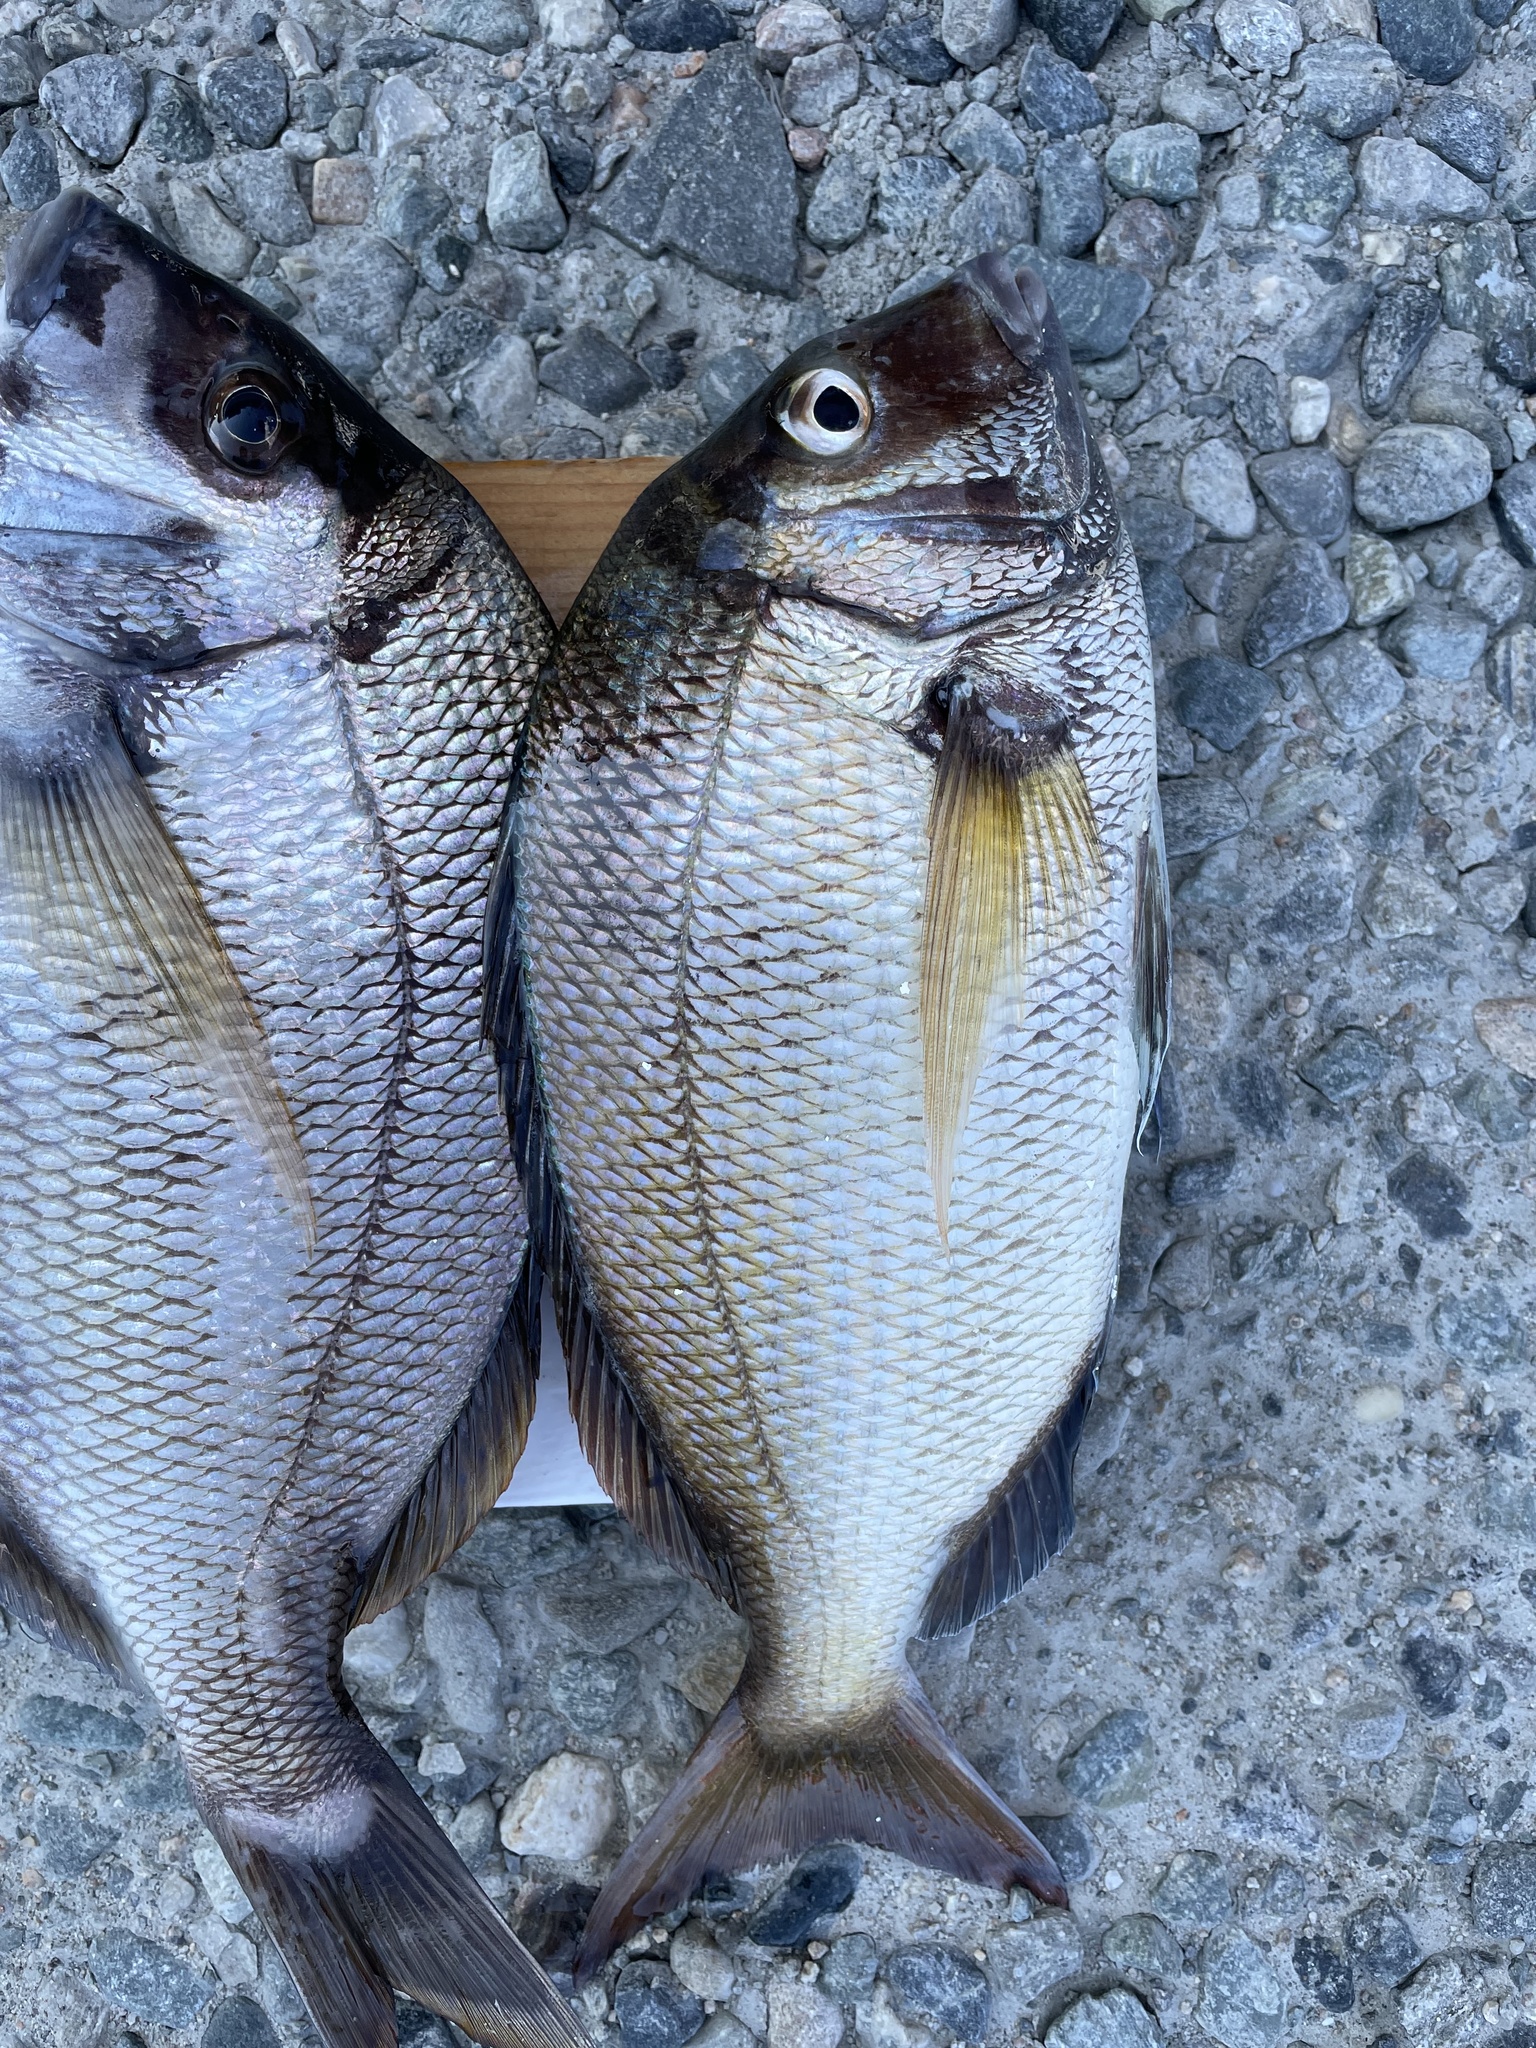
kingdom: Animalia
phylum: Chordata
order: Perciformes
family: Sparidae
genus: Stenotomus
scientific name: Stenotomus chrysops
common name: Scup
